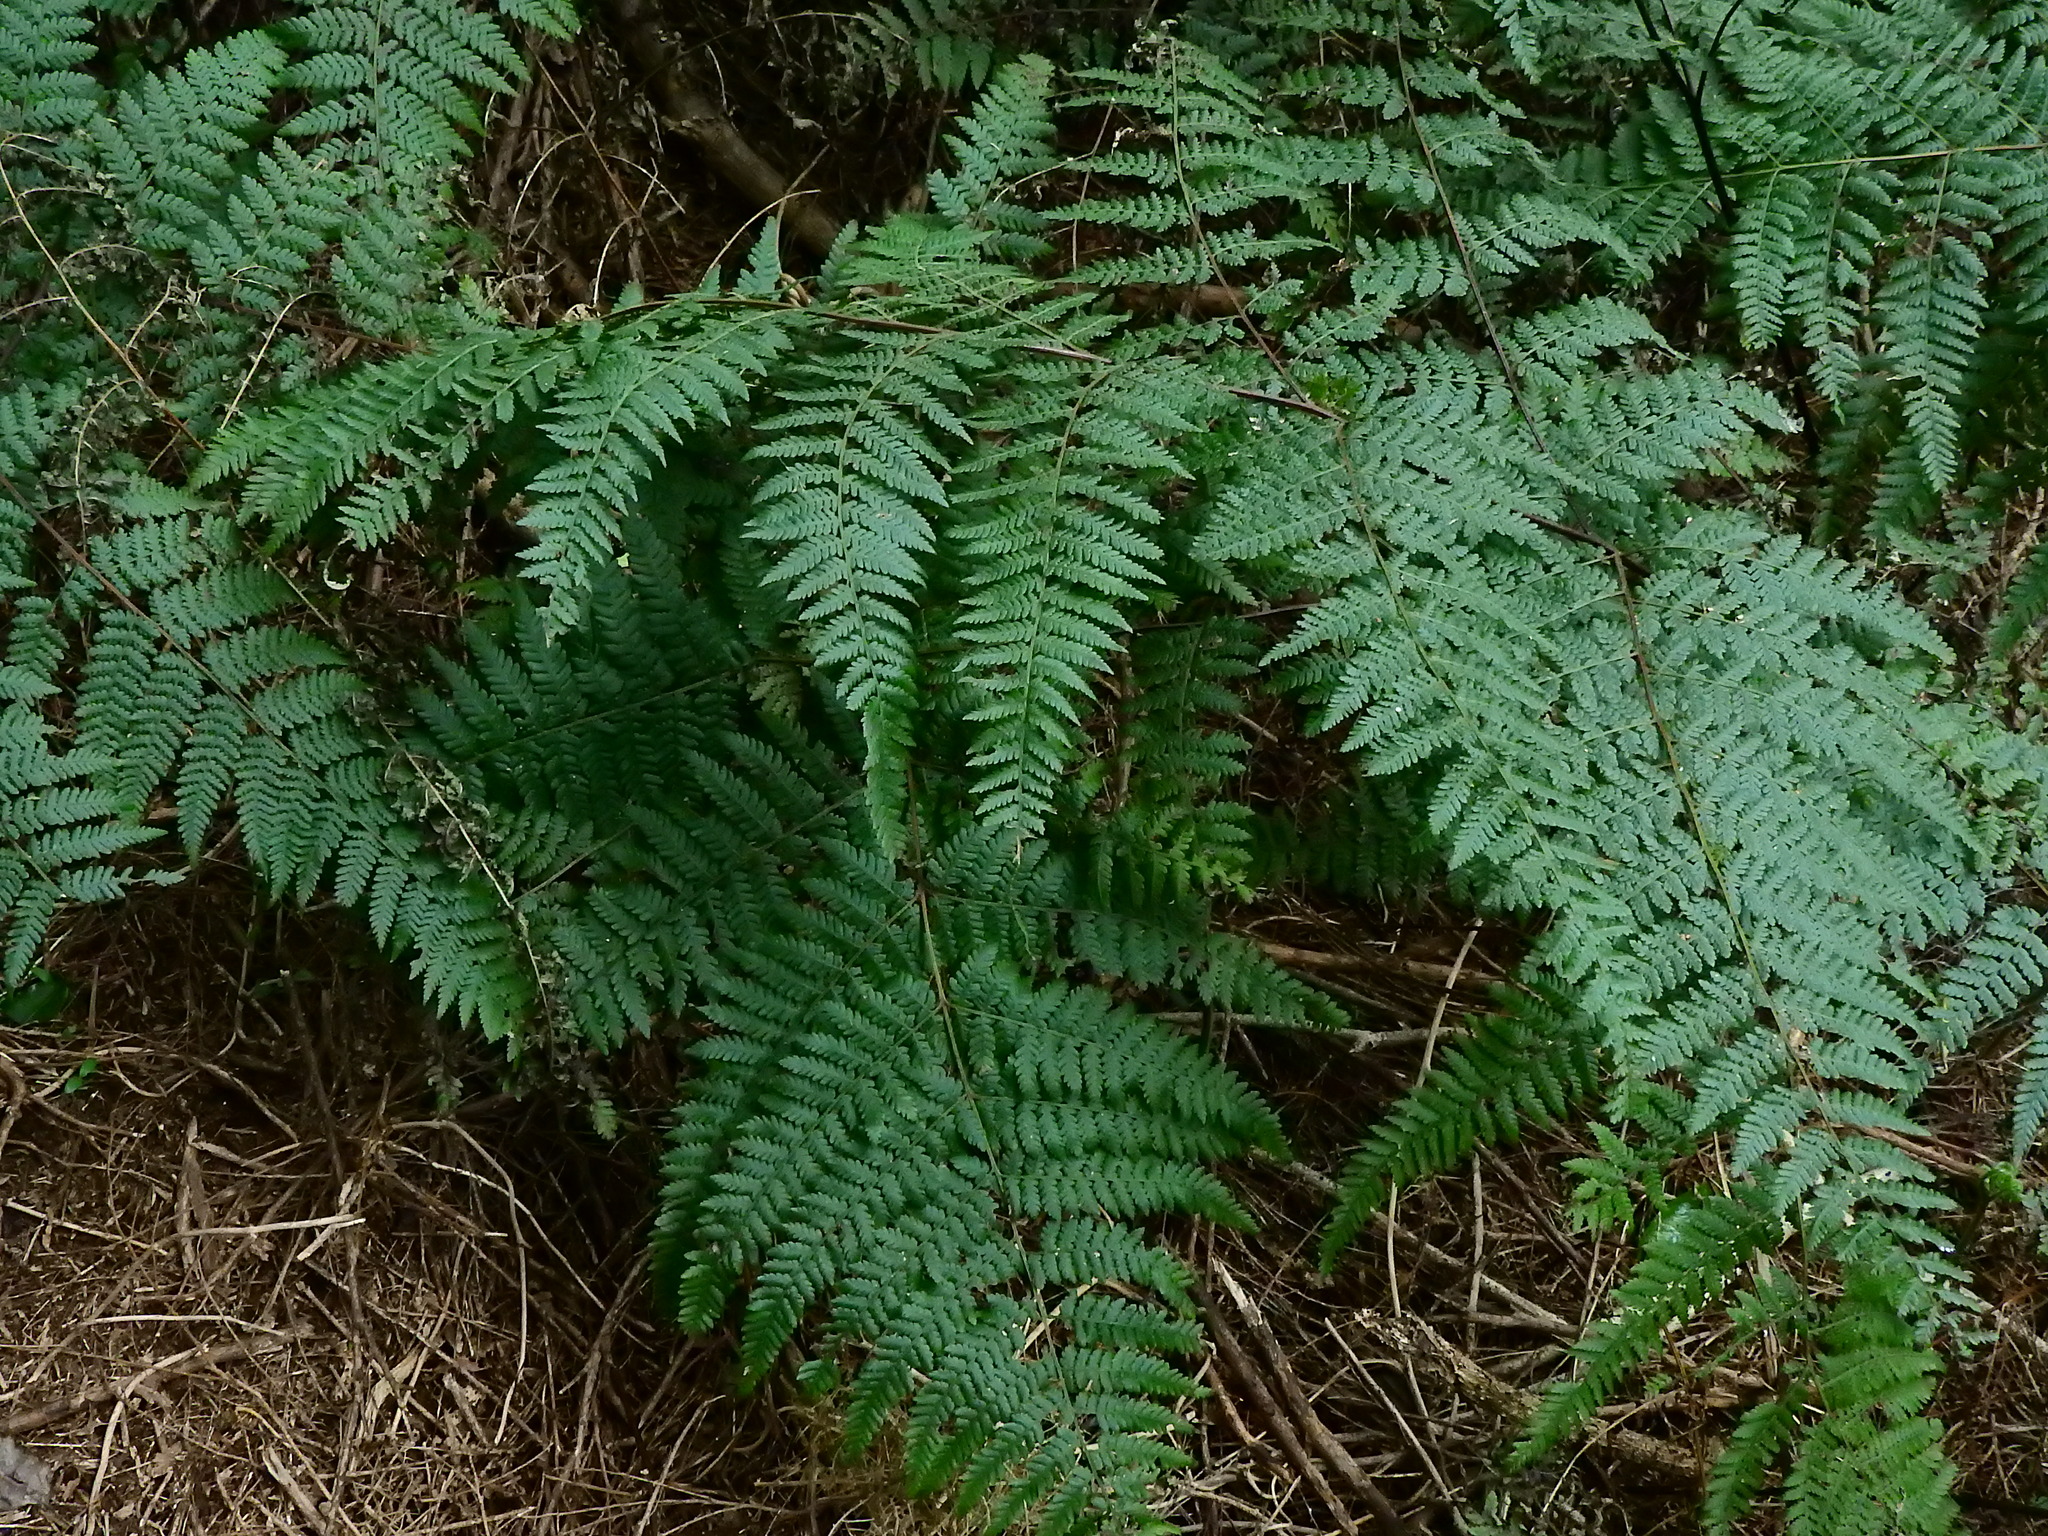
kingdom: Plantae
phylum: Tracheophyta
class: Polypodiopsida
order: Polypodiales
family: Dennstaedtiaceae
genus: Hypolepis
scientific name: Hypolepis ambigua
